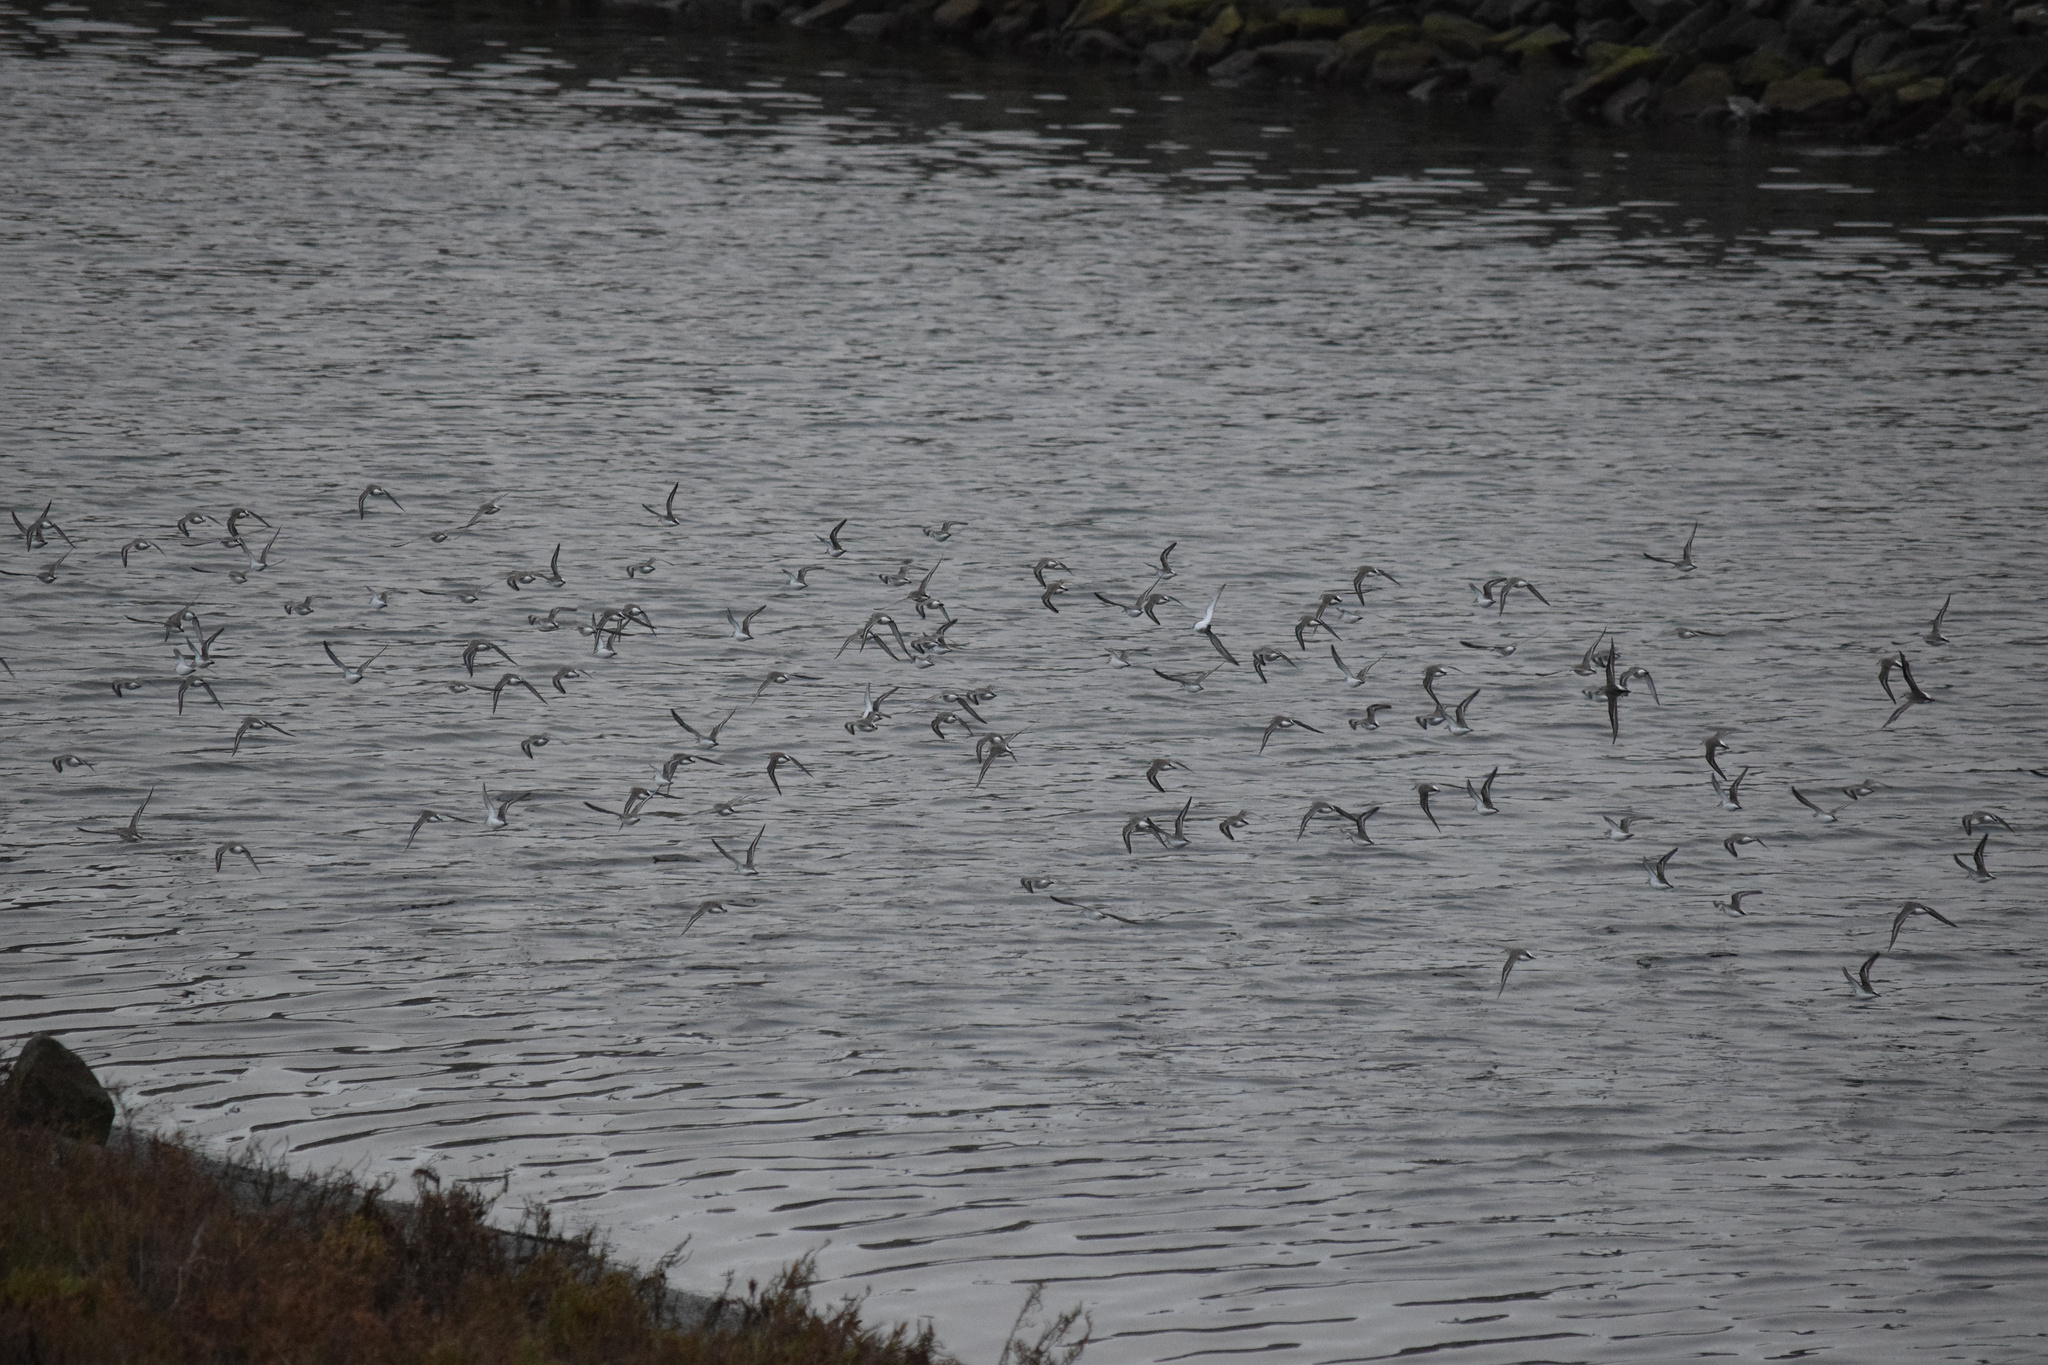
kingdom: Animalia
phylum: Chordata
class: Aves
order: Charadriiformes
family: Scolopacidae
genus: Calidris
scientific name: Calidris
